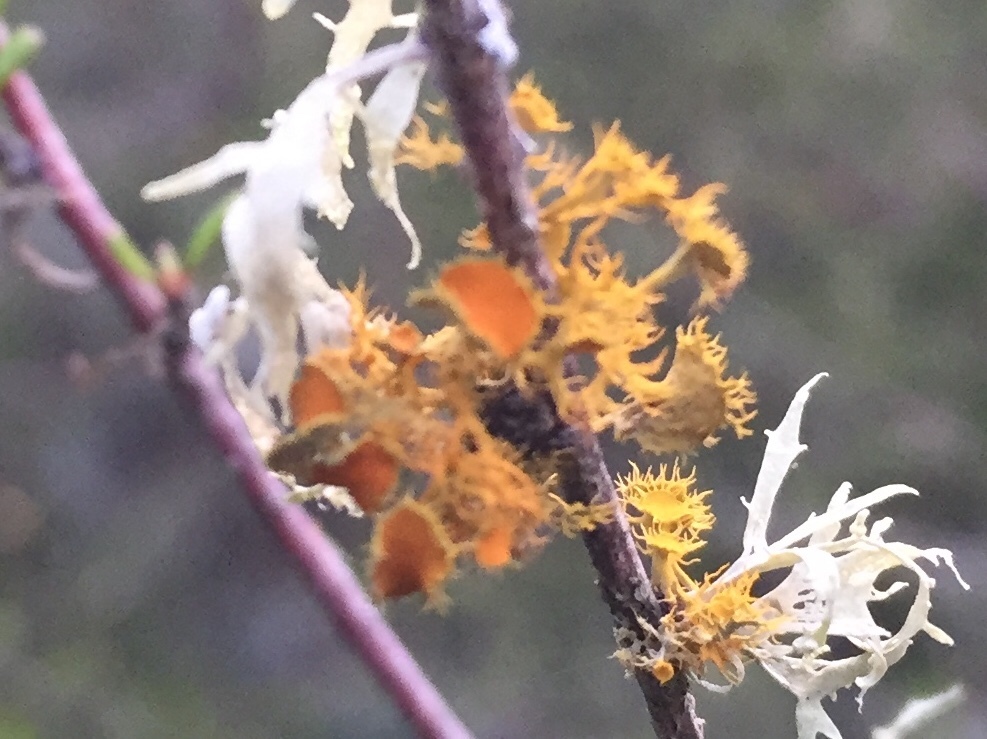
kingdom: Fungi
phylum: Ascomycota
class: Lecanoromycetes
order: Teloschistales
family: Teloschistaceae
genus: Niorma
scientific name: Niorma chrysophthalma
